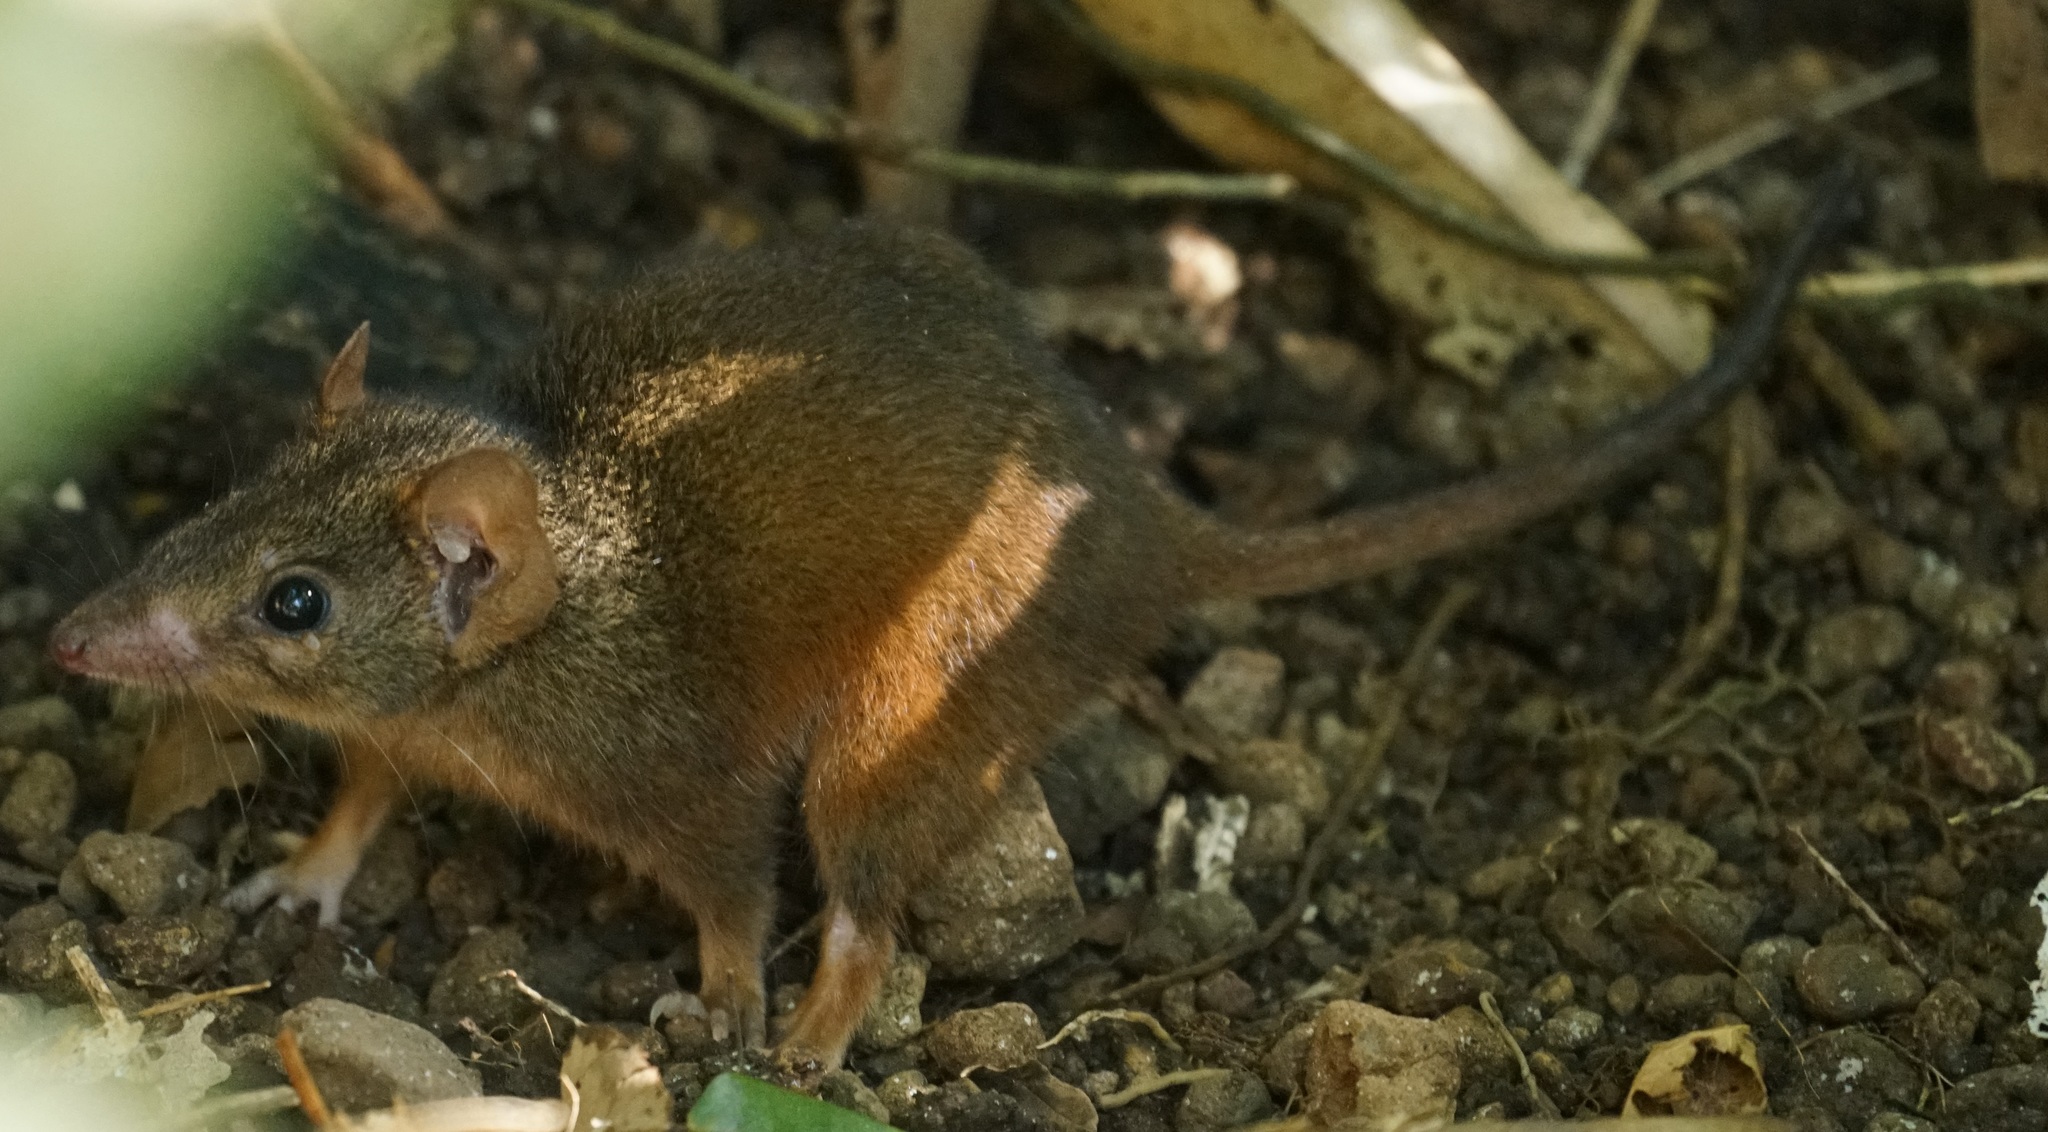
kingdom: Animalia
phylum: Chordata
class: Mammalia
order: Dasyuromorphia
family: Dasyuridae
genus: Antechinus
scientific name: Antechinus flavipes
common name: Yellow-footed antechinus
